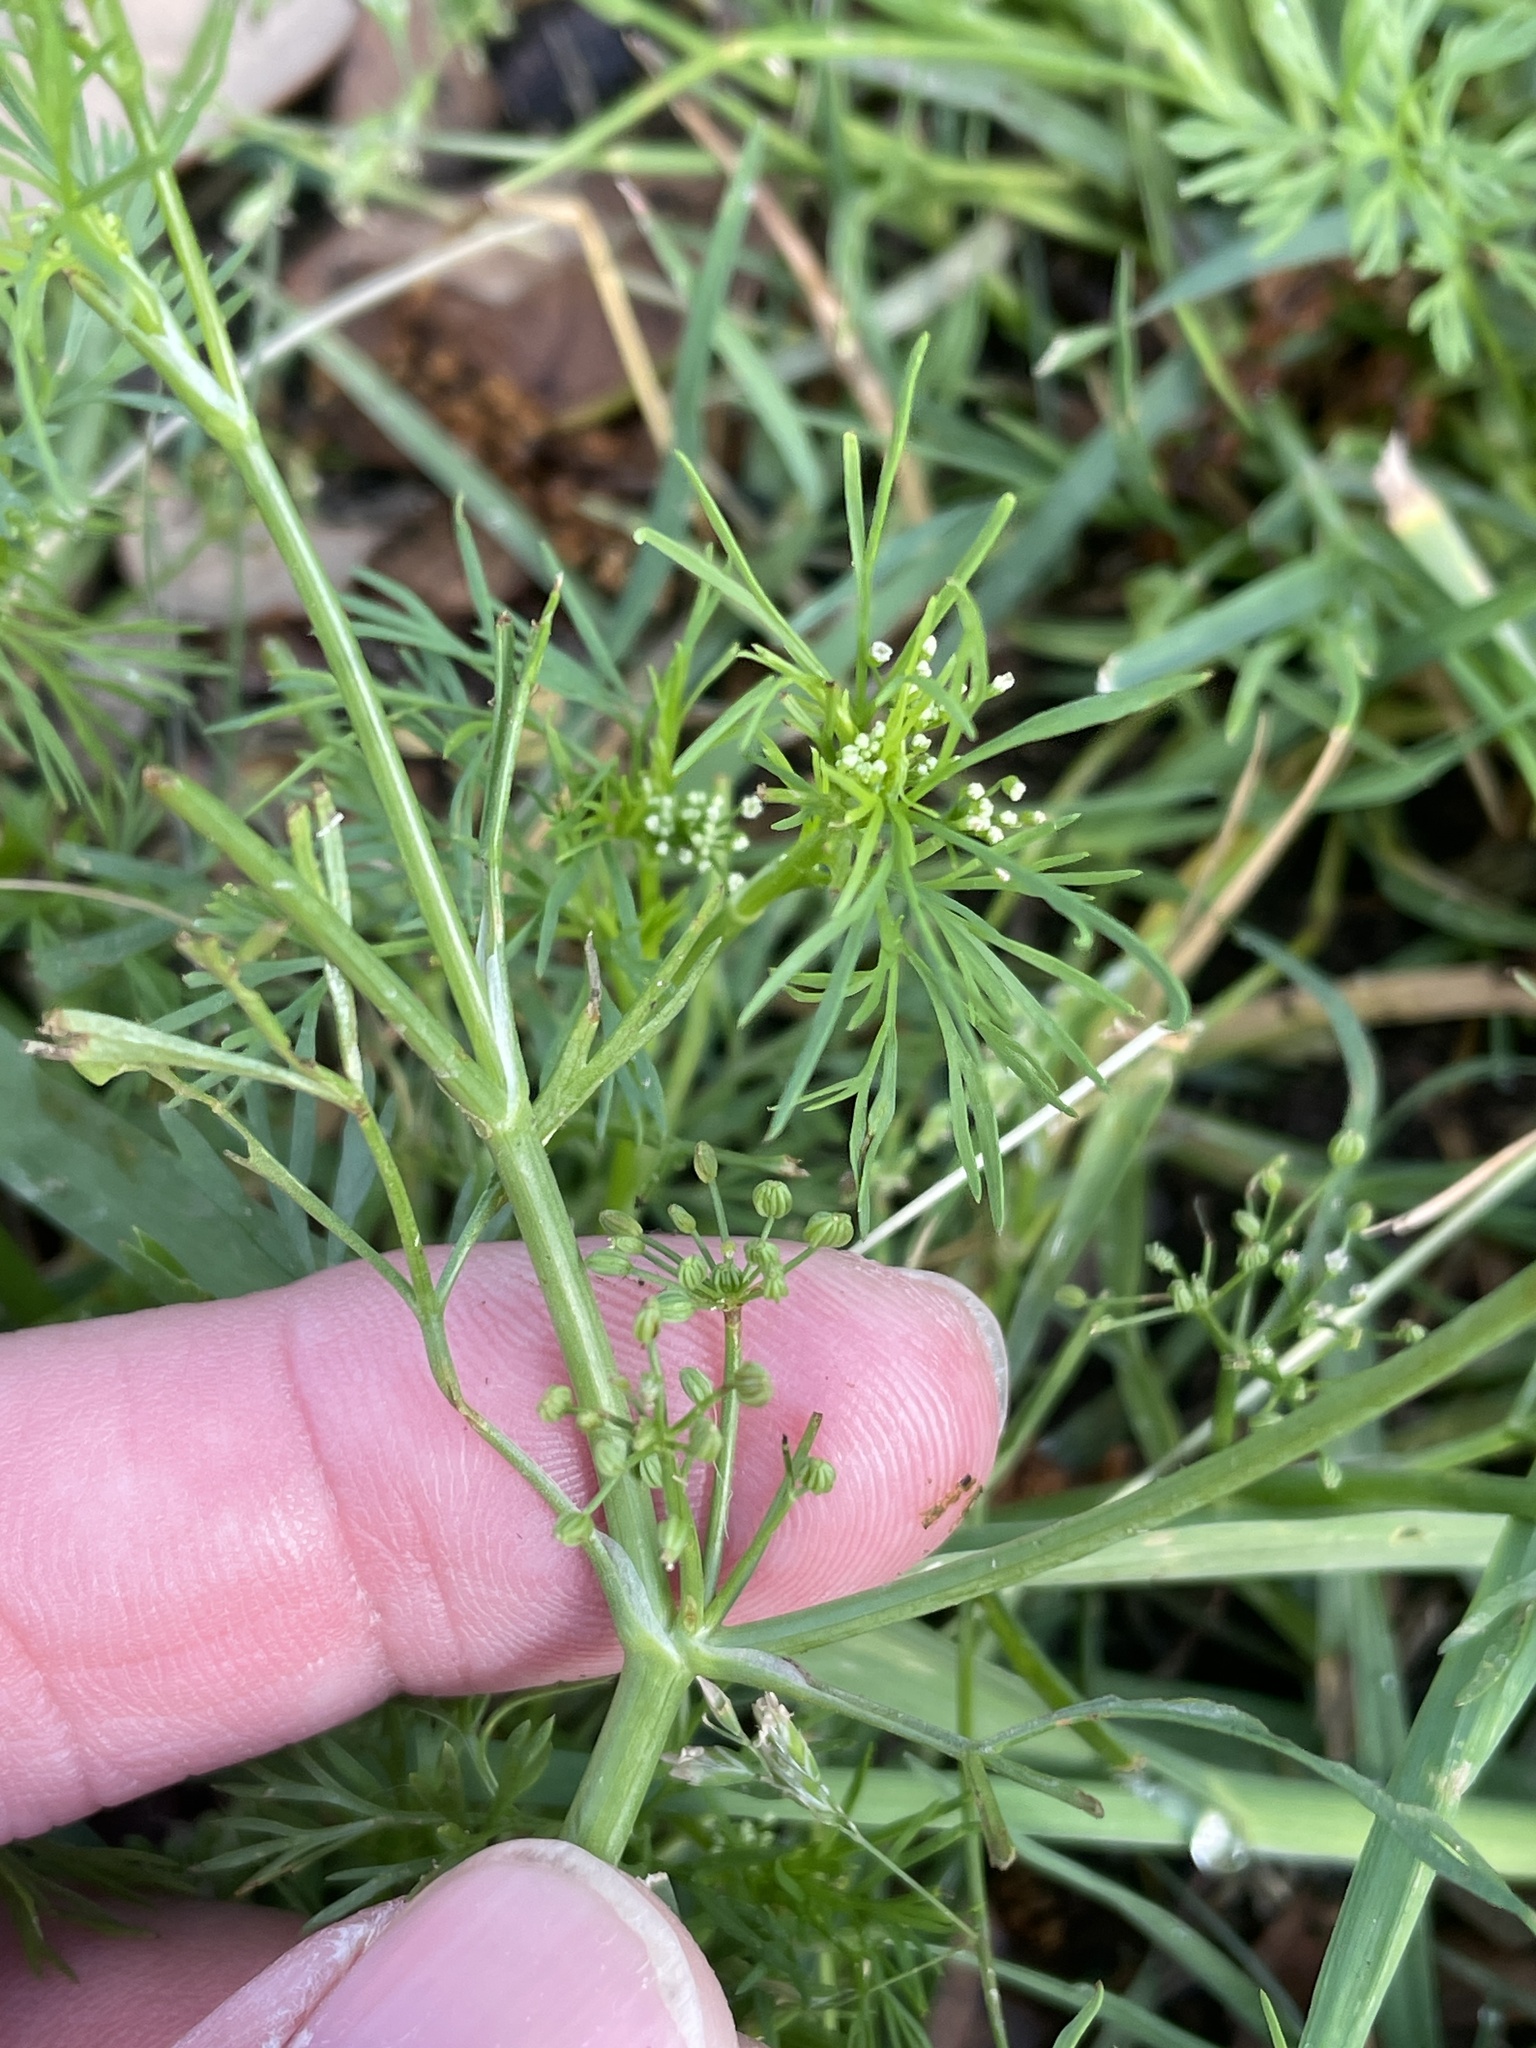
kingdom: Plantae
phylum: Tracheophyta
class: Magnoliopsida
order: Apiales
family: Apiaceae
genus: Cyclospermum
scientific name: Cyclospermum leptophyllum
